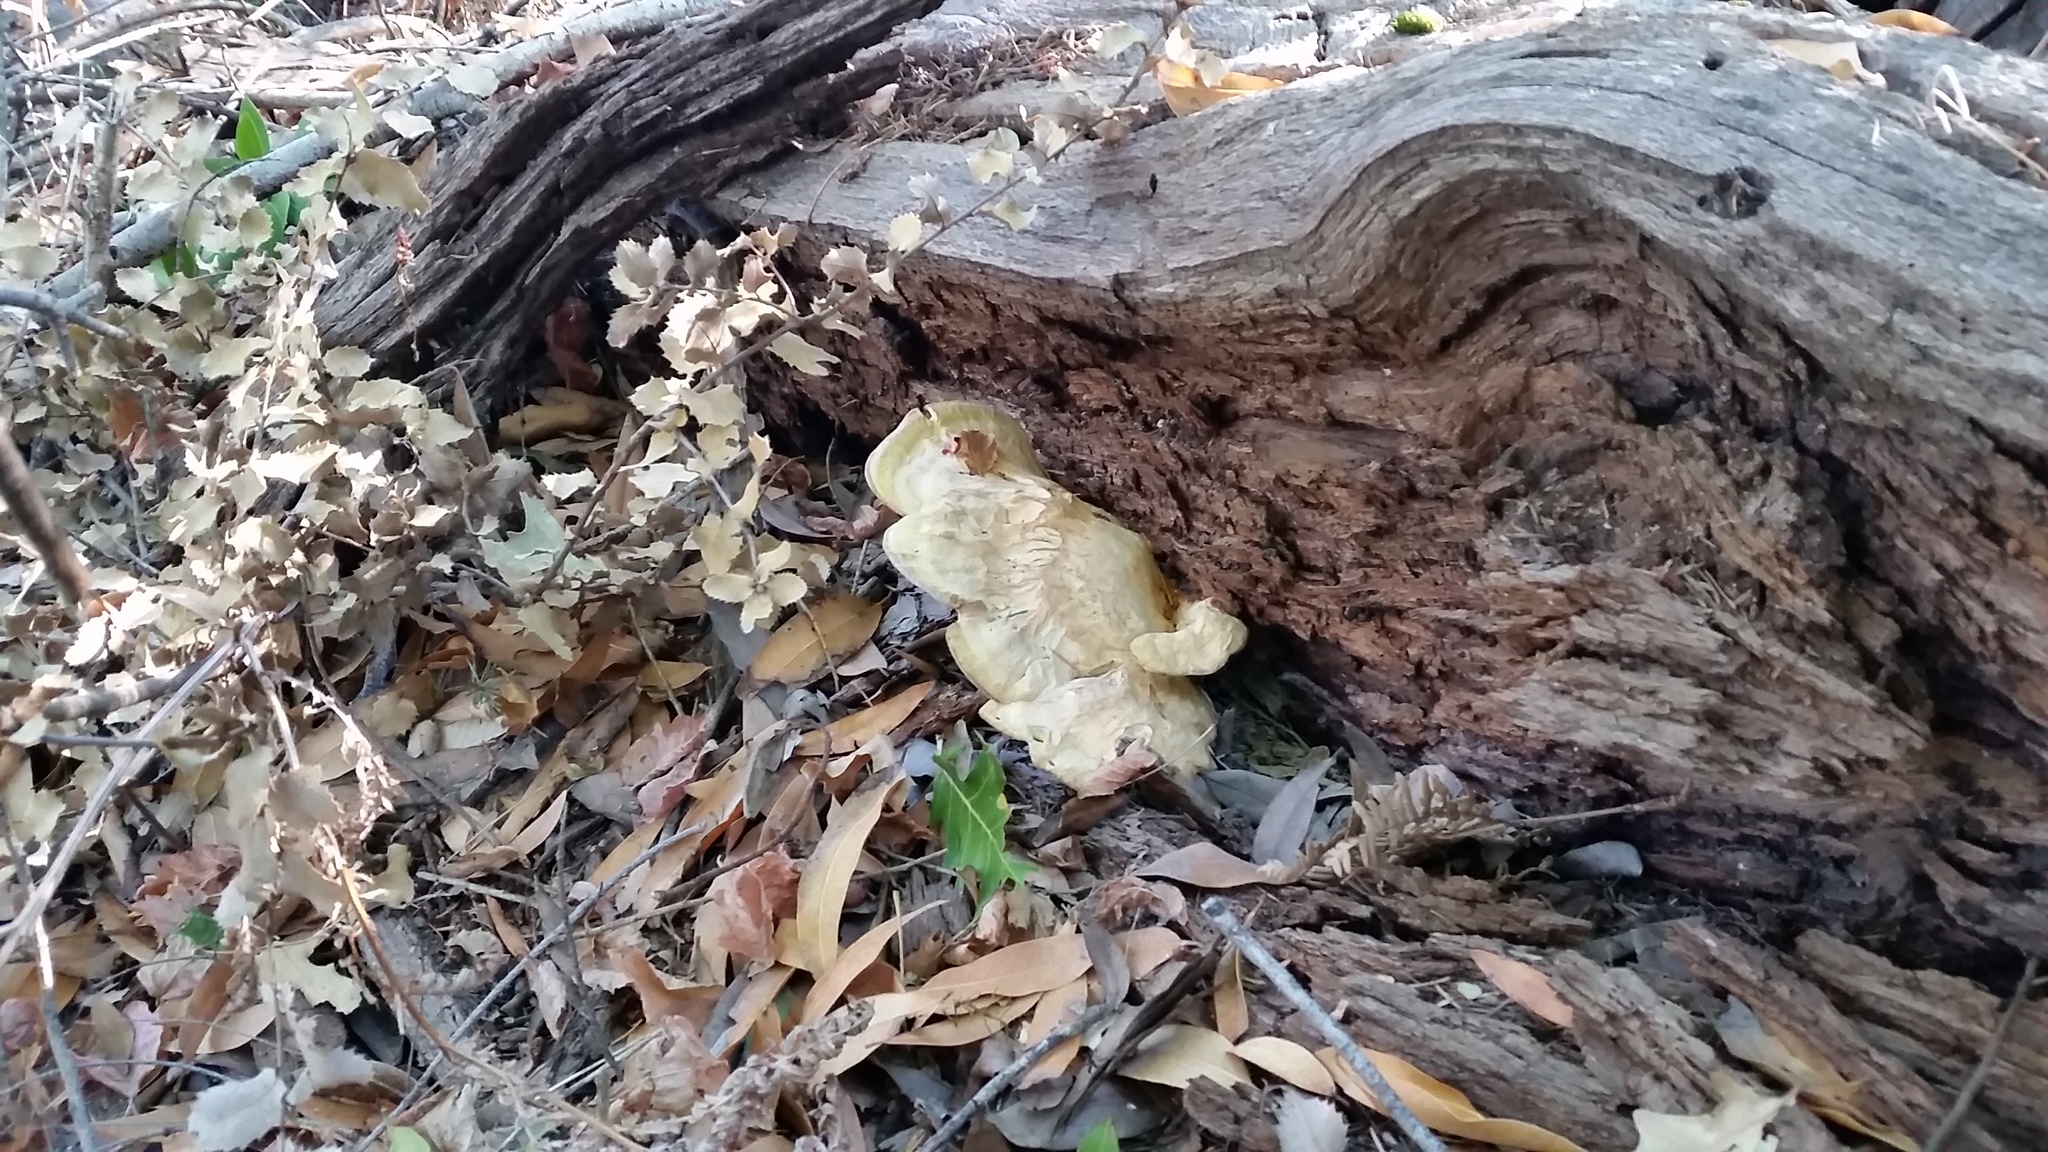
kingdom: Fungi
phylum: Basidiomycota
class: Agaricomycetes
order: Polyporales
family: Laetiporaceae
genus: Laetiporus
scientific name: Laetiporus gilbertsonii
